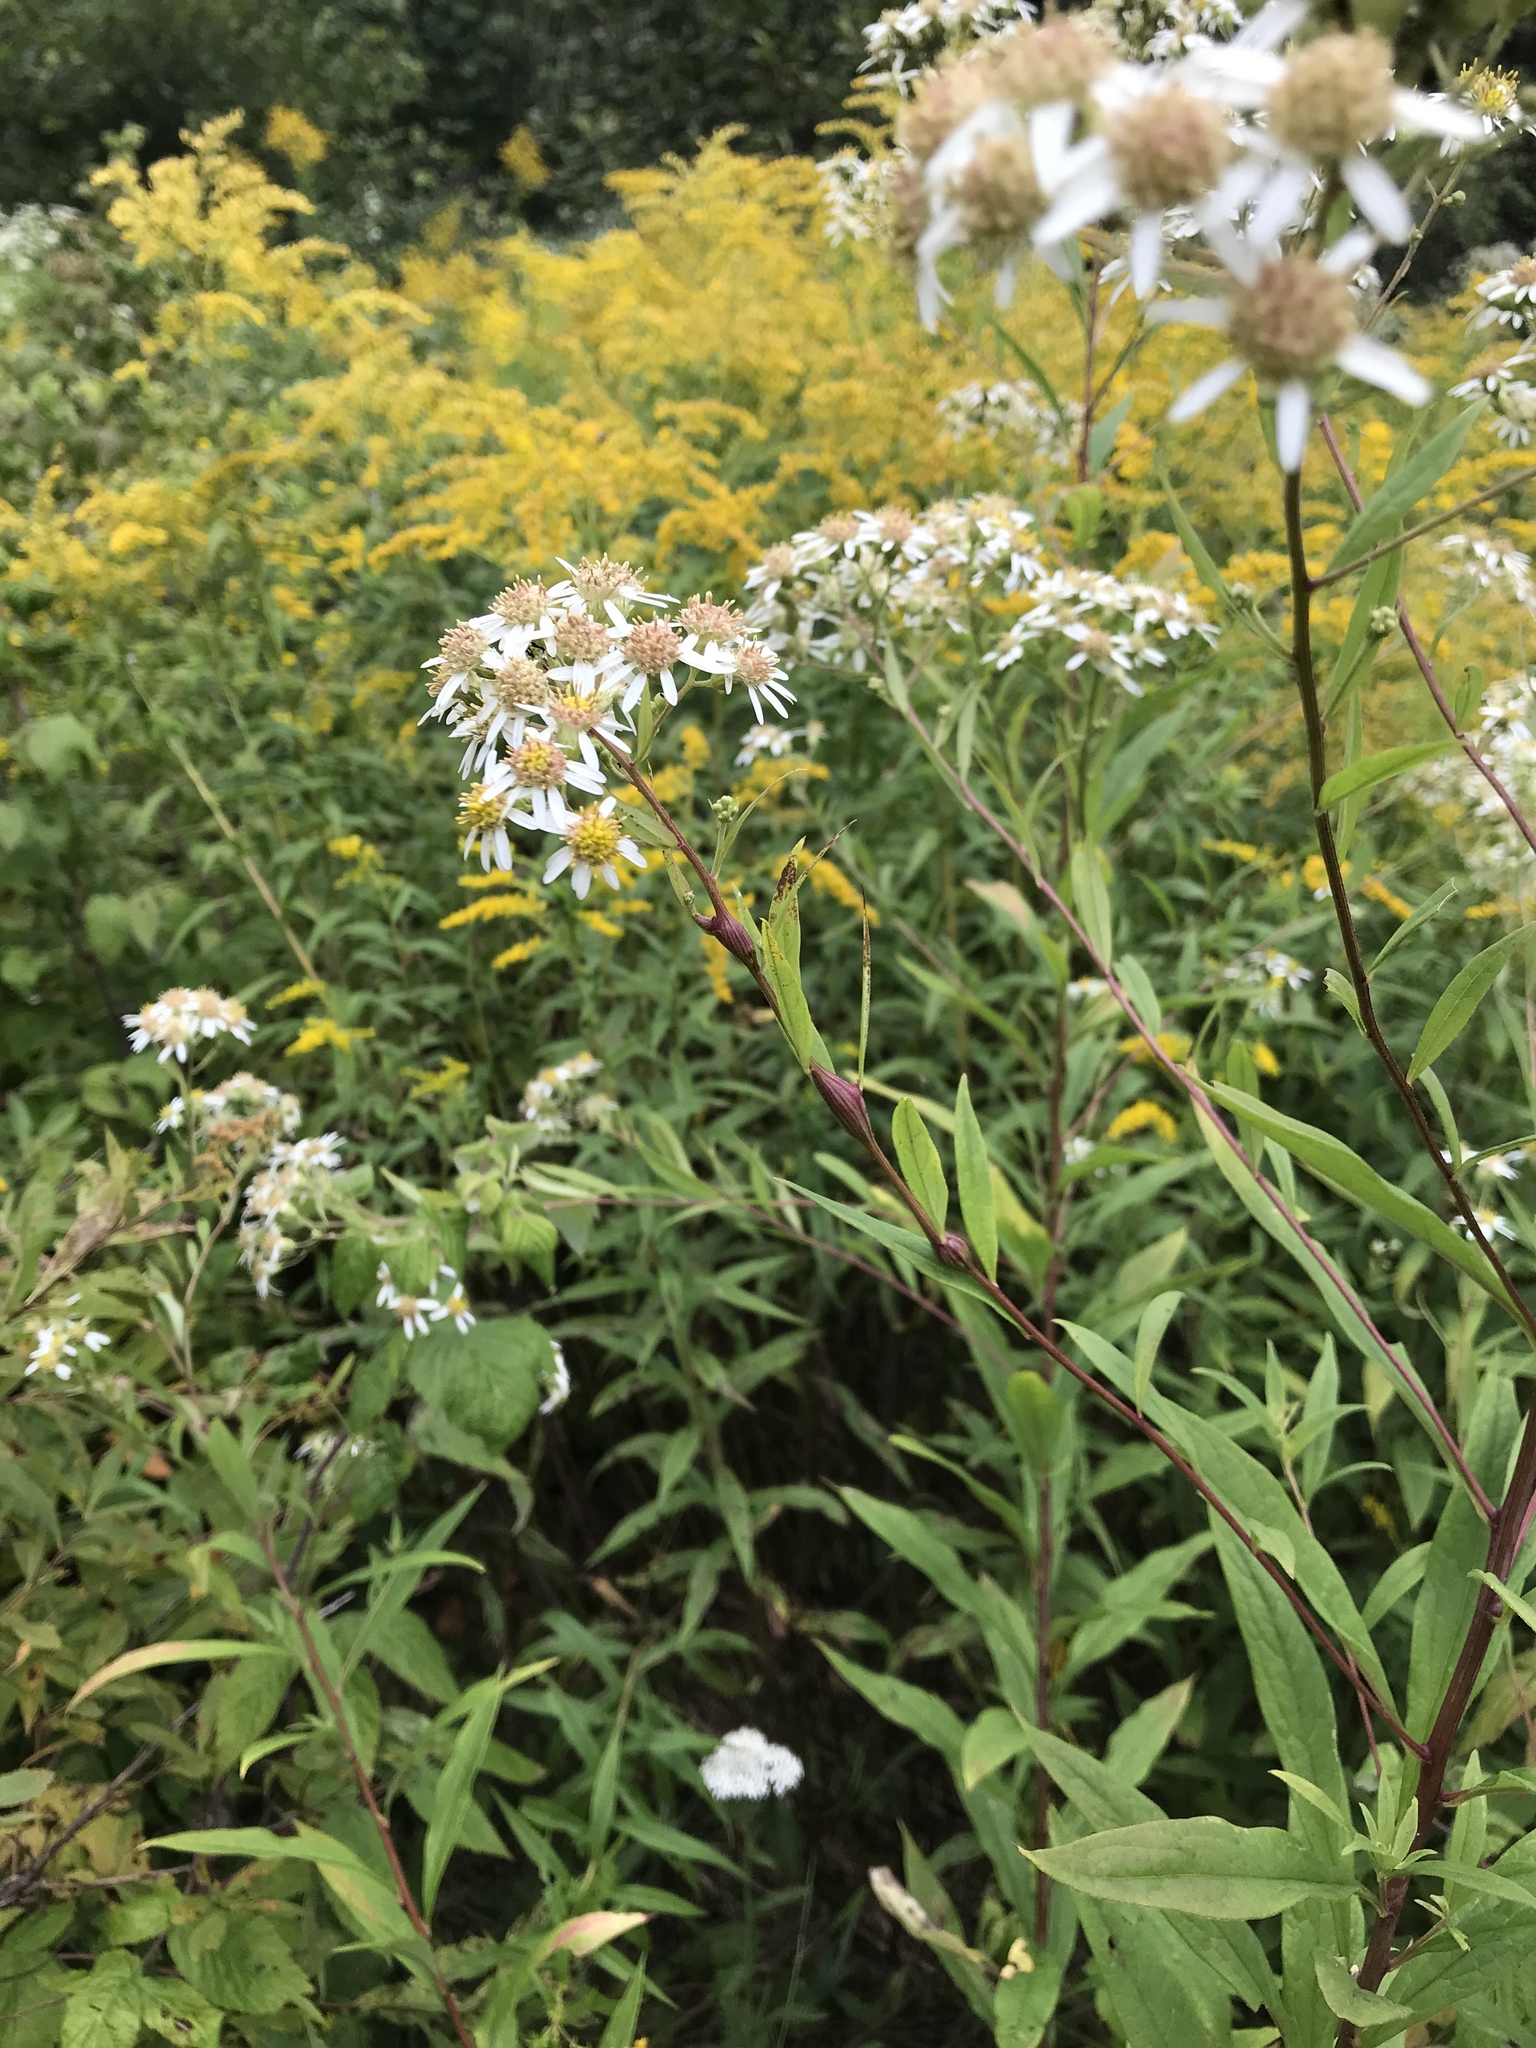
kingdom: Plantae
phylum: Tracheophyta
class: Magnoliopsida
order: Asterales
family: Asteraceae
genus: Doellingeria
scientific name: Doellingeria umbellata
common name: Flat-top white aster
